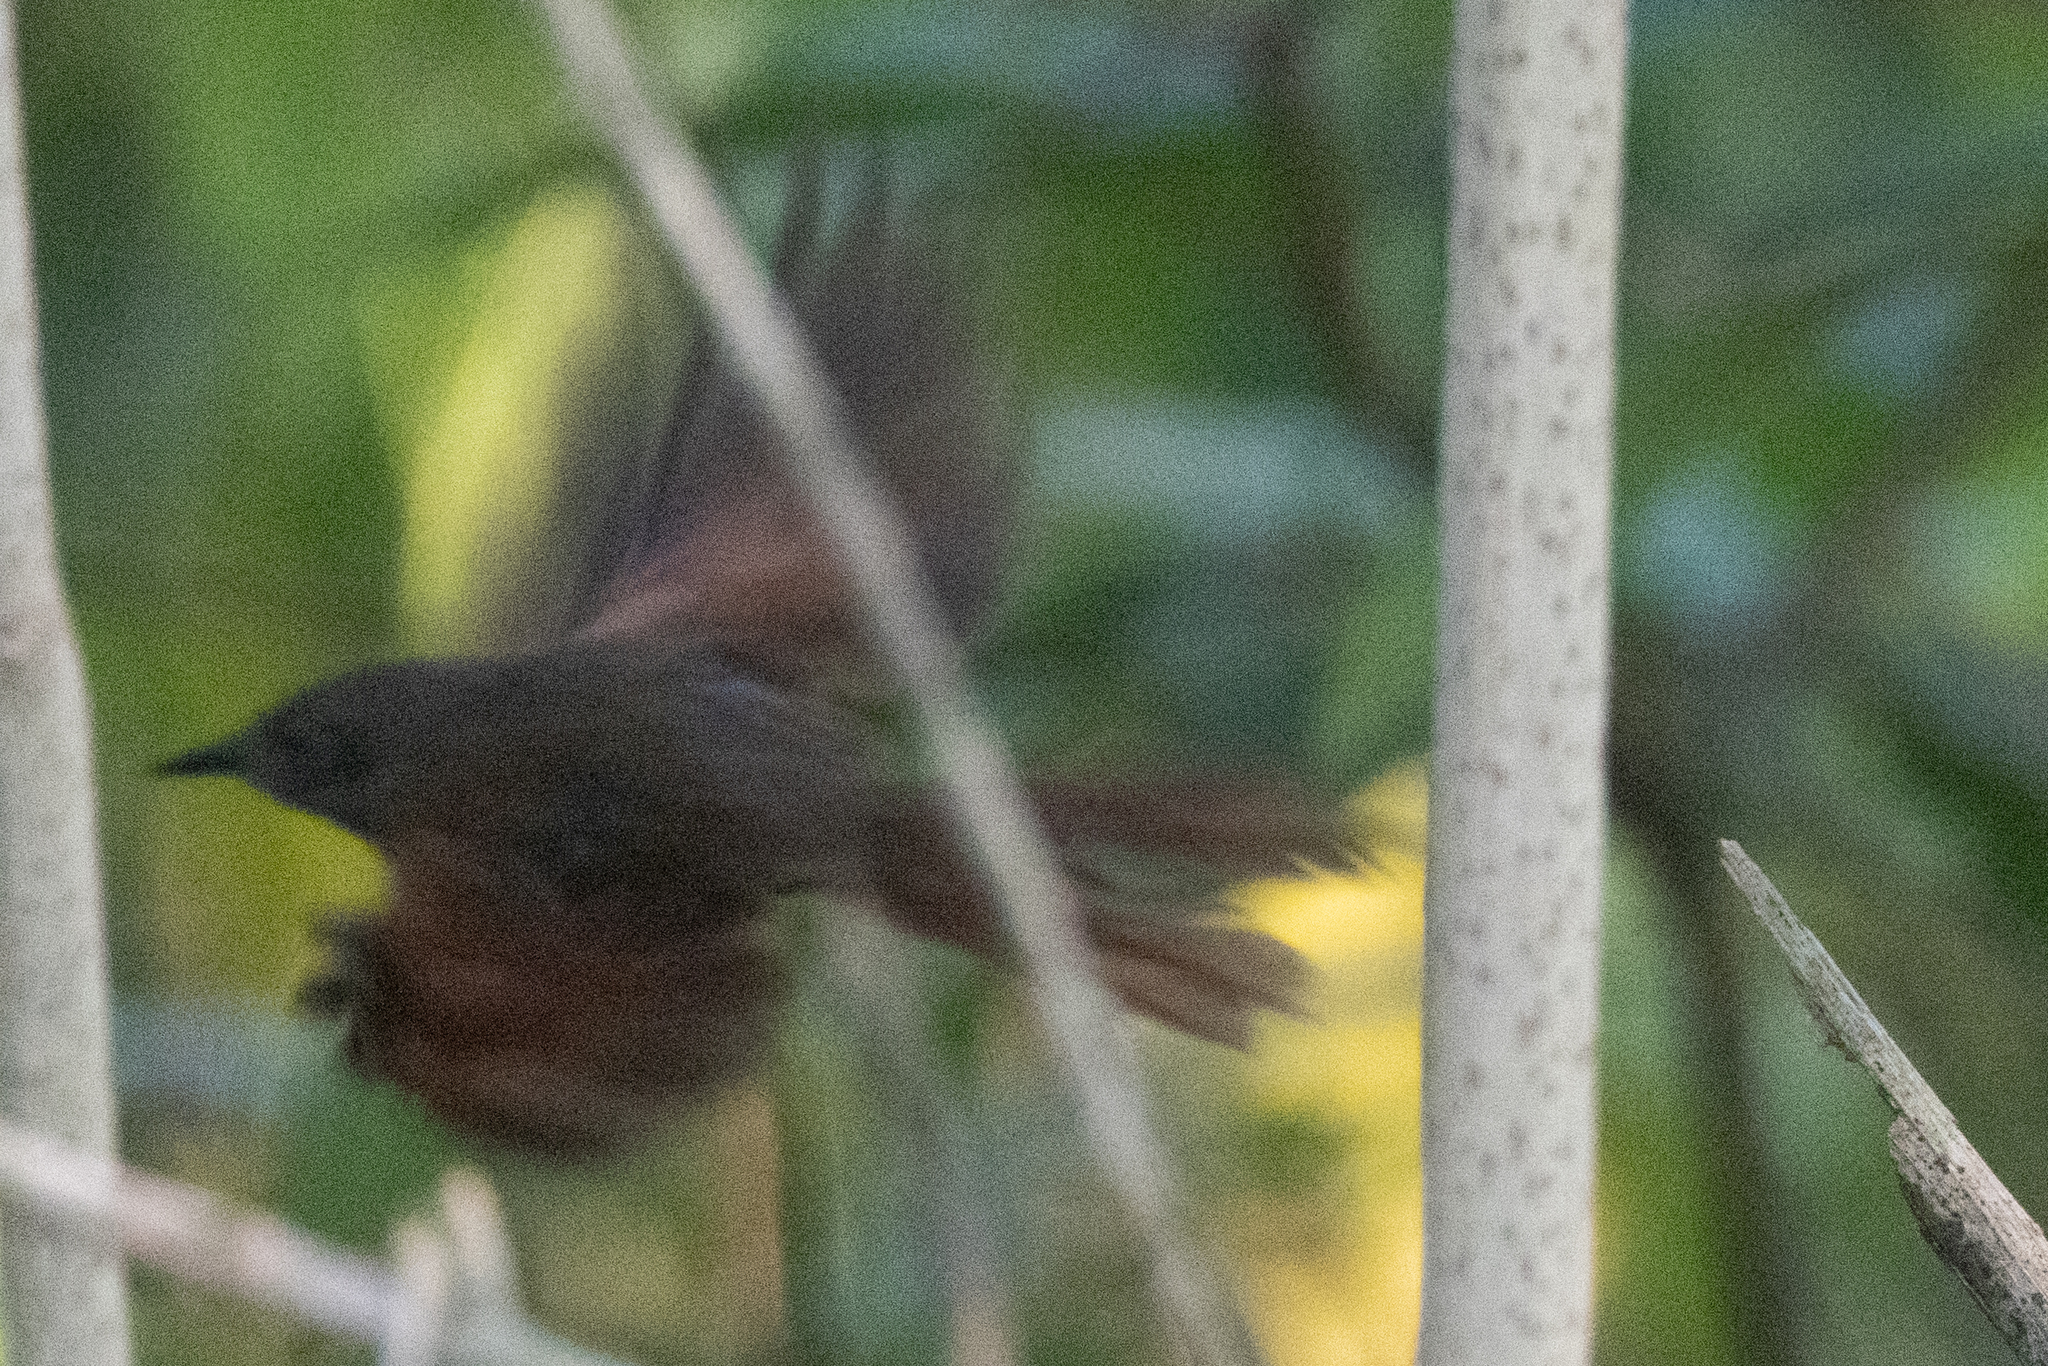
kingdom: Animalia
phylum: Chordata
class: Aves
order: Passeriformes
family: Furnariidae
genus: Synallaxis
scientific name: Synallaxis erythrothorax
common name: Rufous-breasted spinetail
